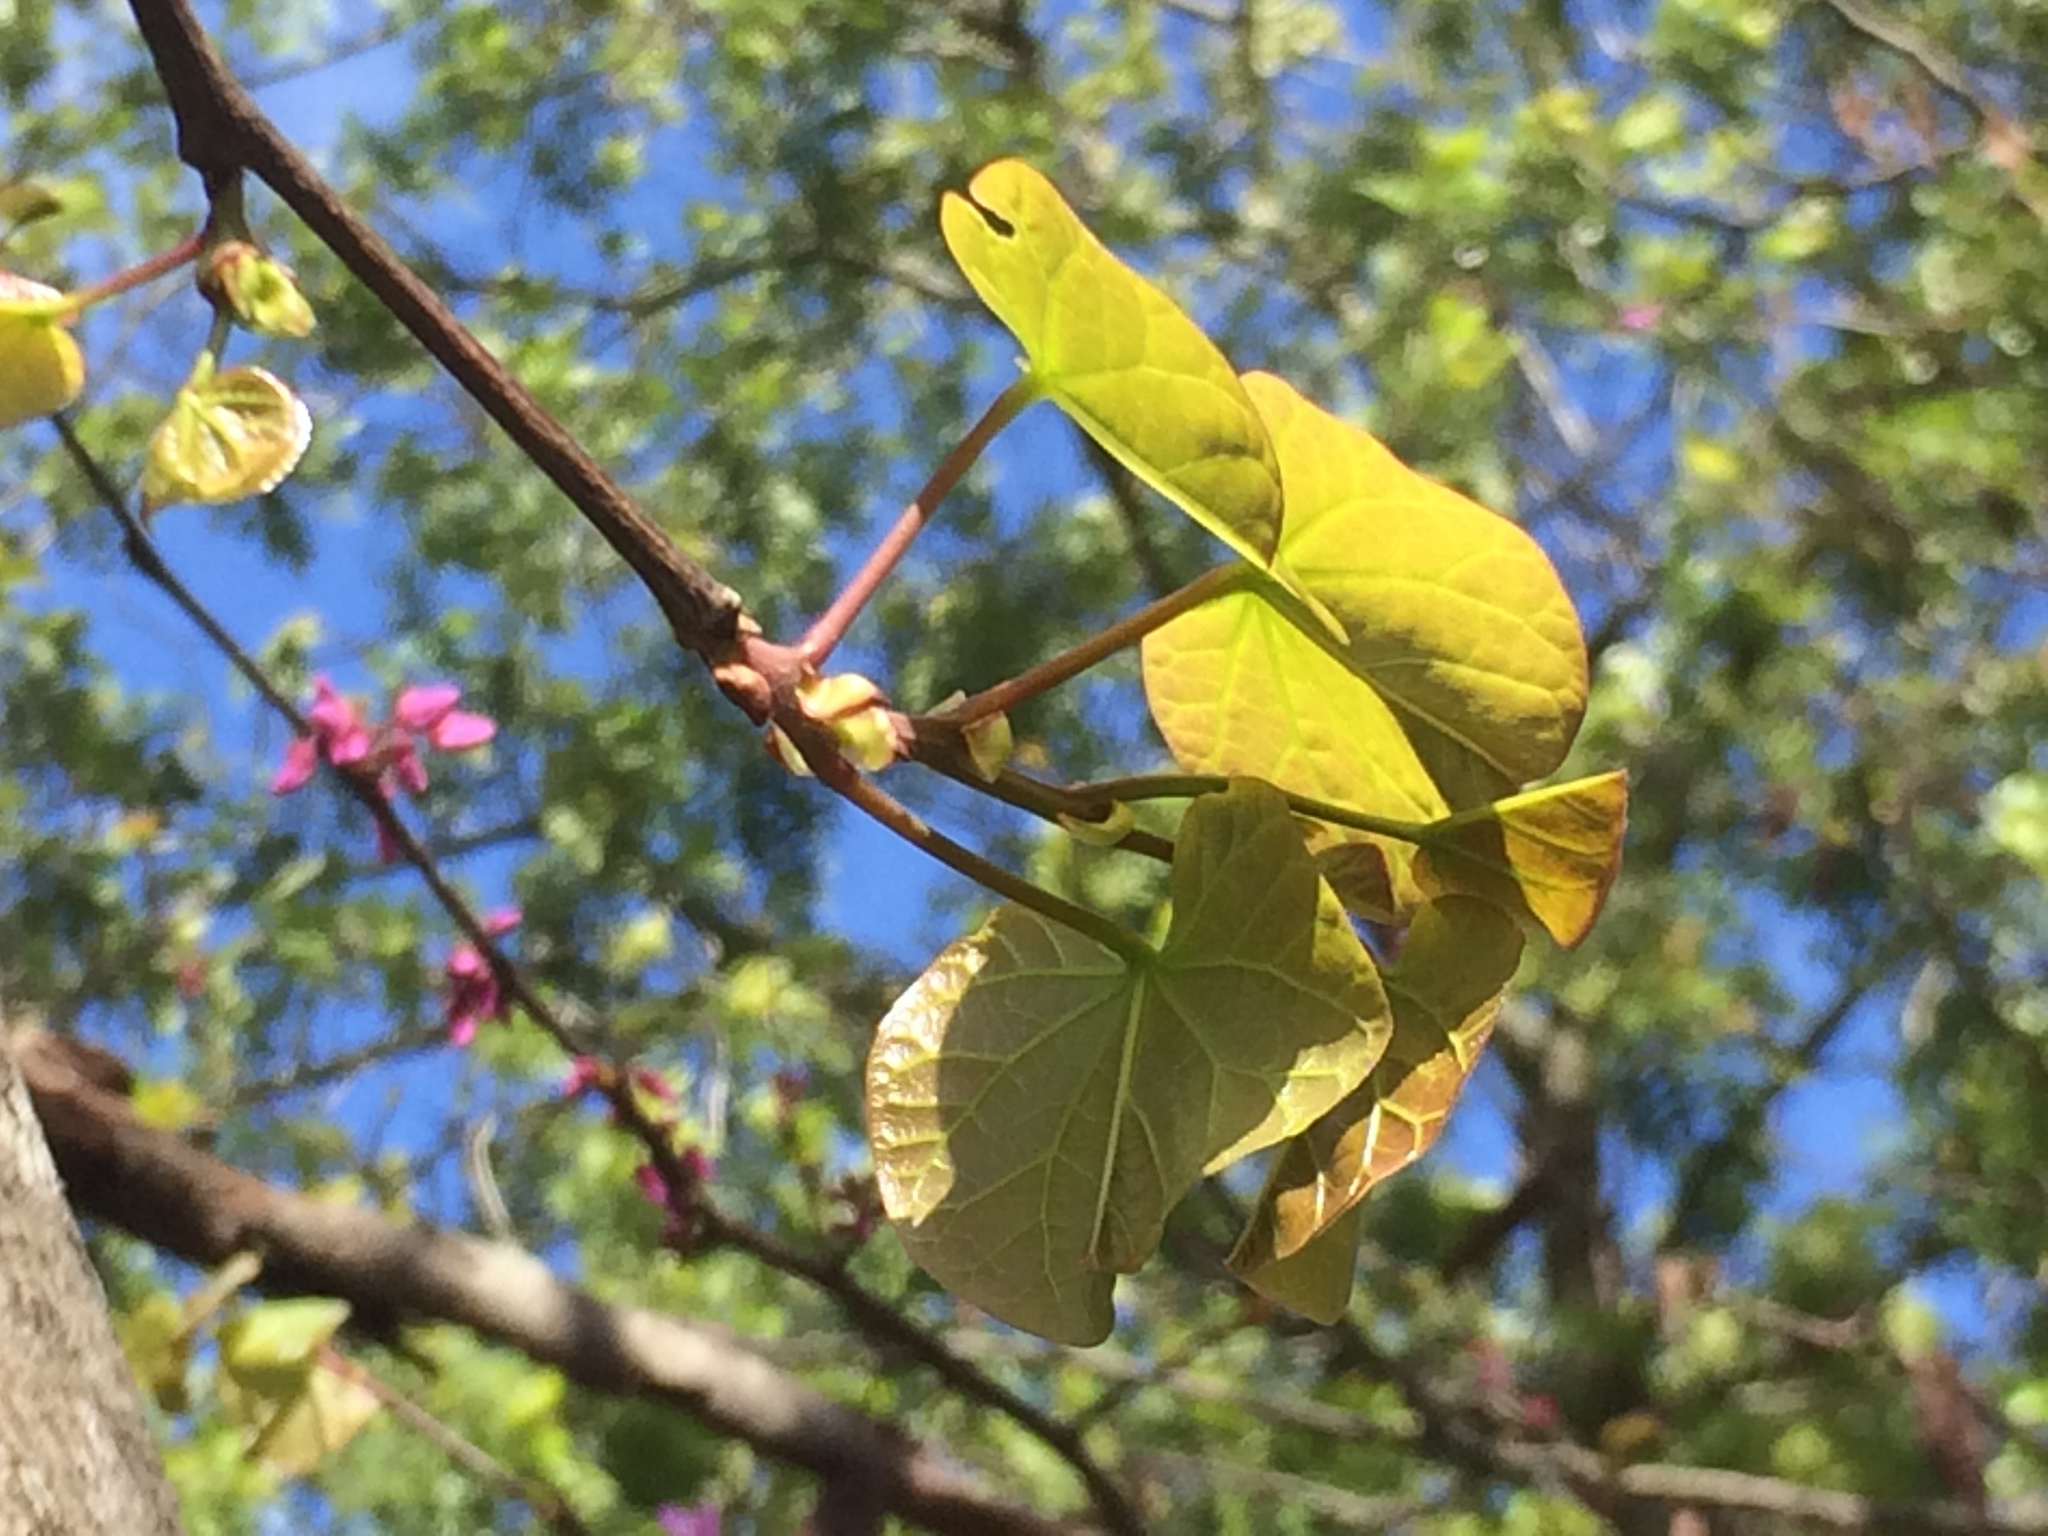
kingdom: Plantae
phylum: Tracheophyta
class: Magnoliopsida
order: Fabales
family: Fabaceae
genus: Cercis
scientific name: Cercis siliquastrum
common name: Judas tree
